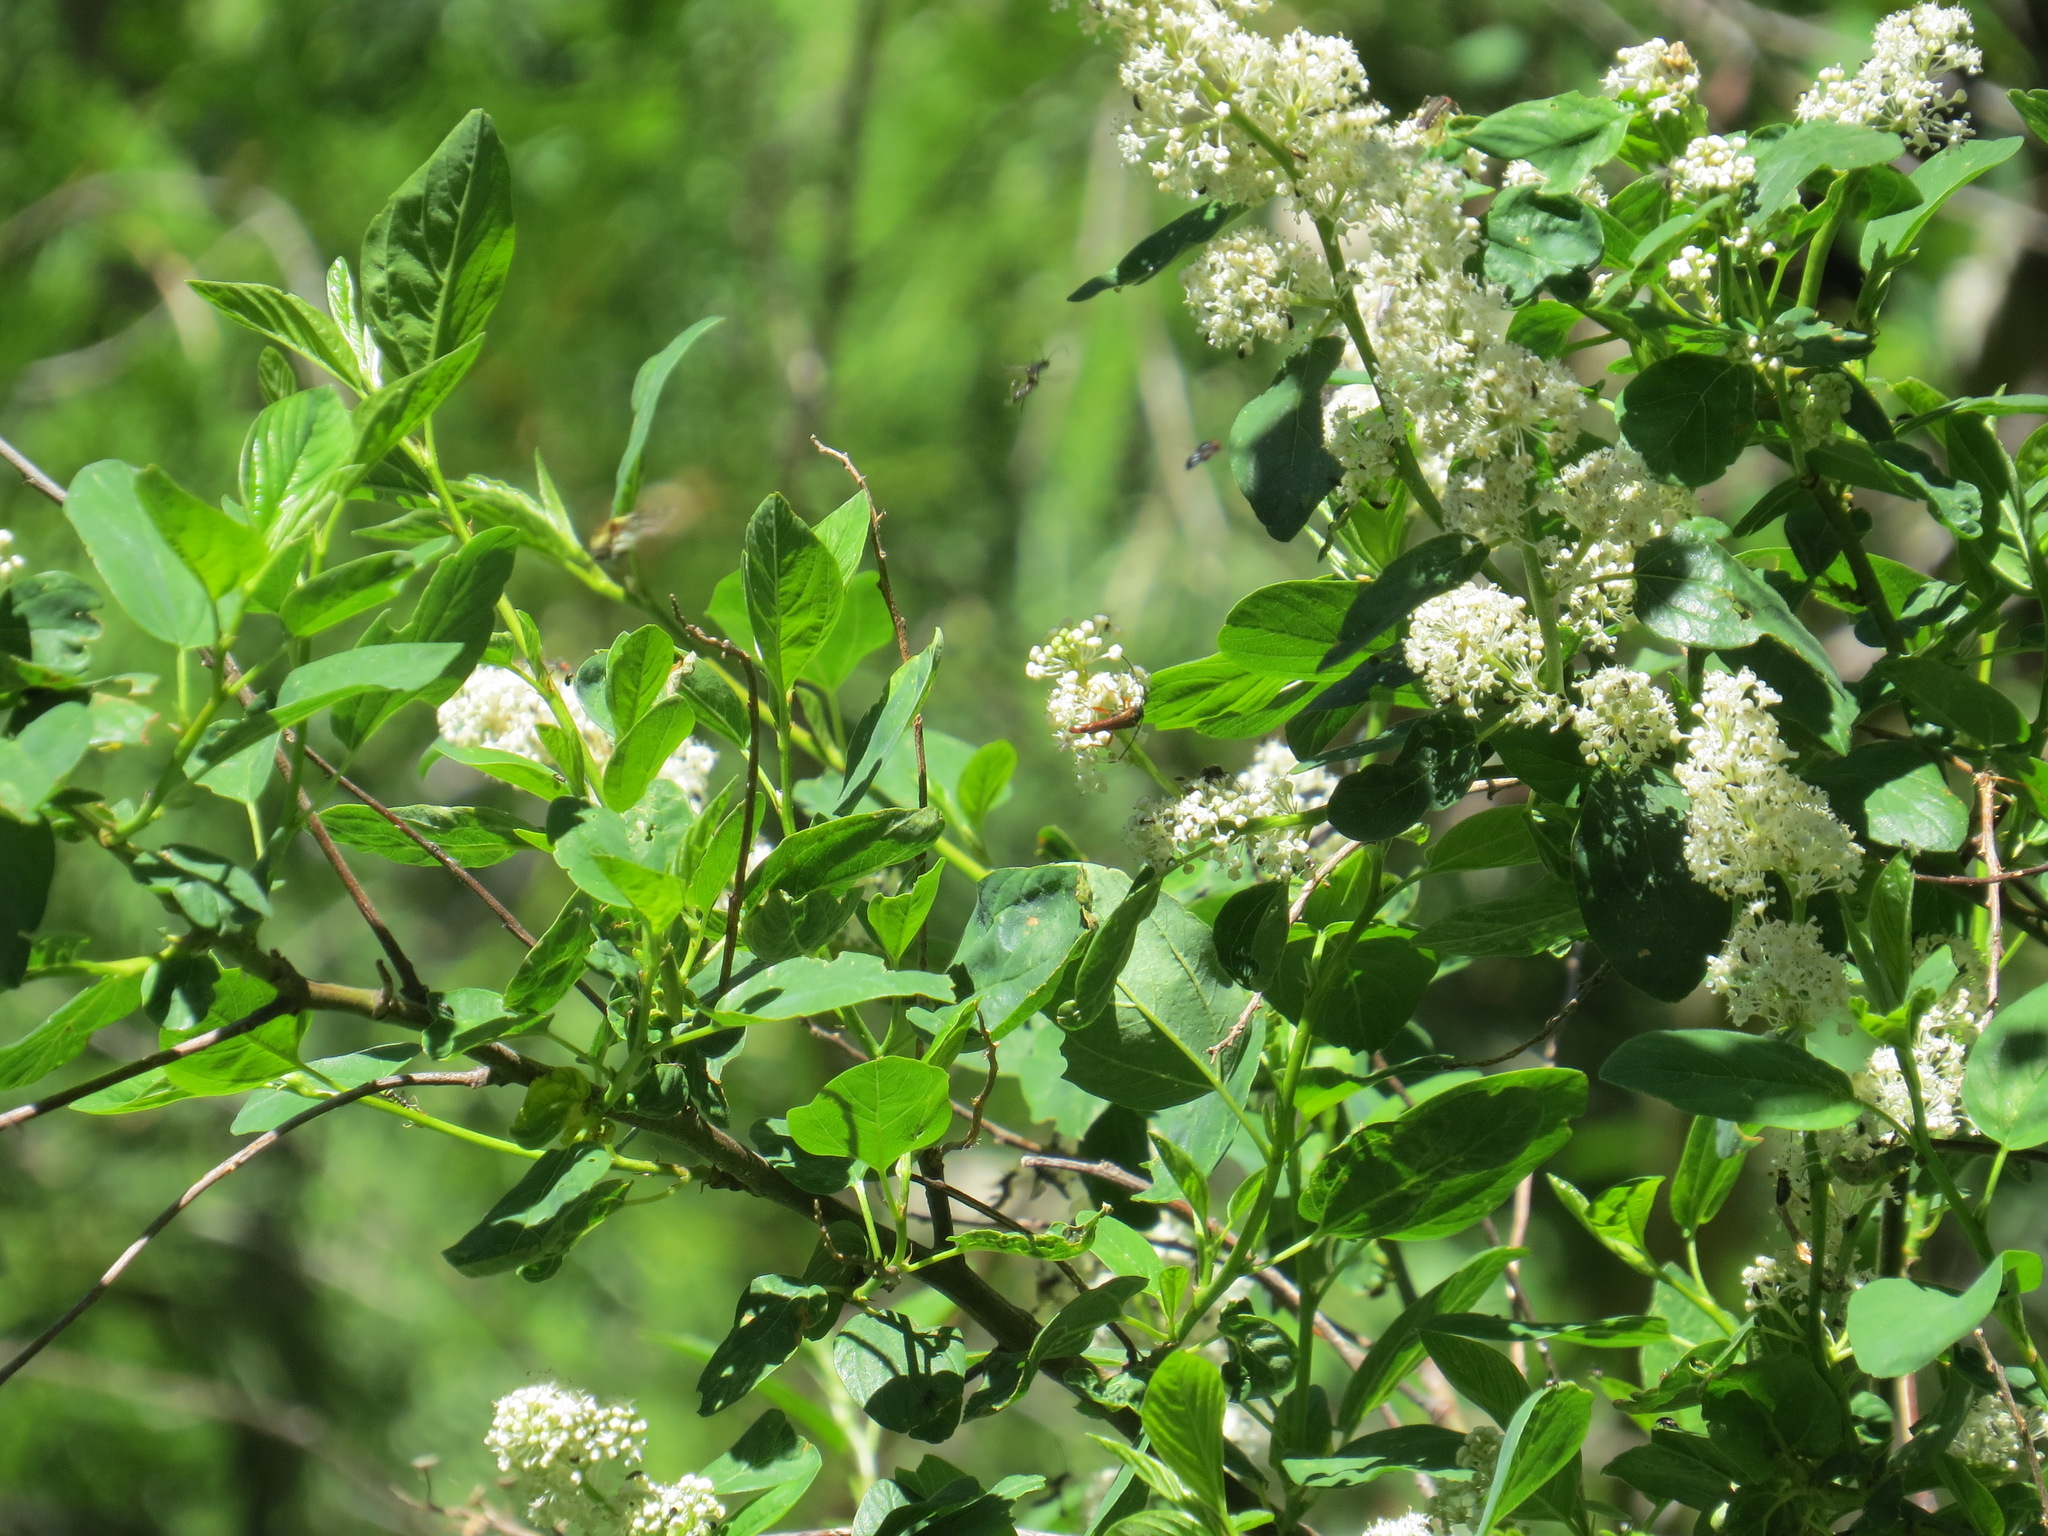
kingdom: Plantae
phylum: Tracheophyta
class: Magnoliopsida
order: Rosales
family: Rhamnaceae
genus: Ceanothus
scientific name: Ceanothus integerrimus
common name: Deerbrush ceanothus
